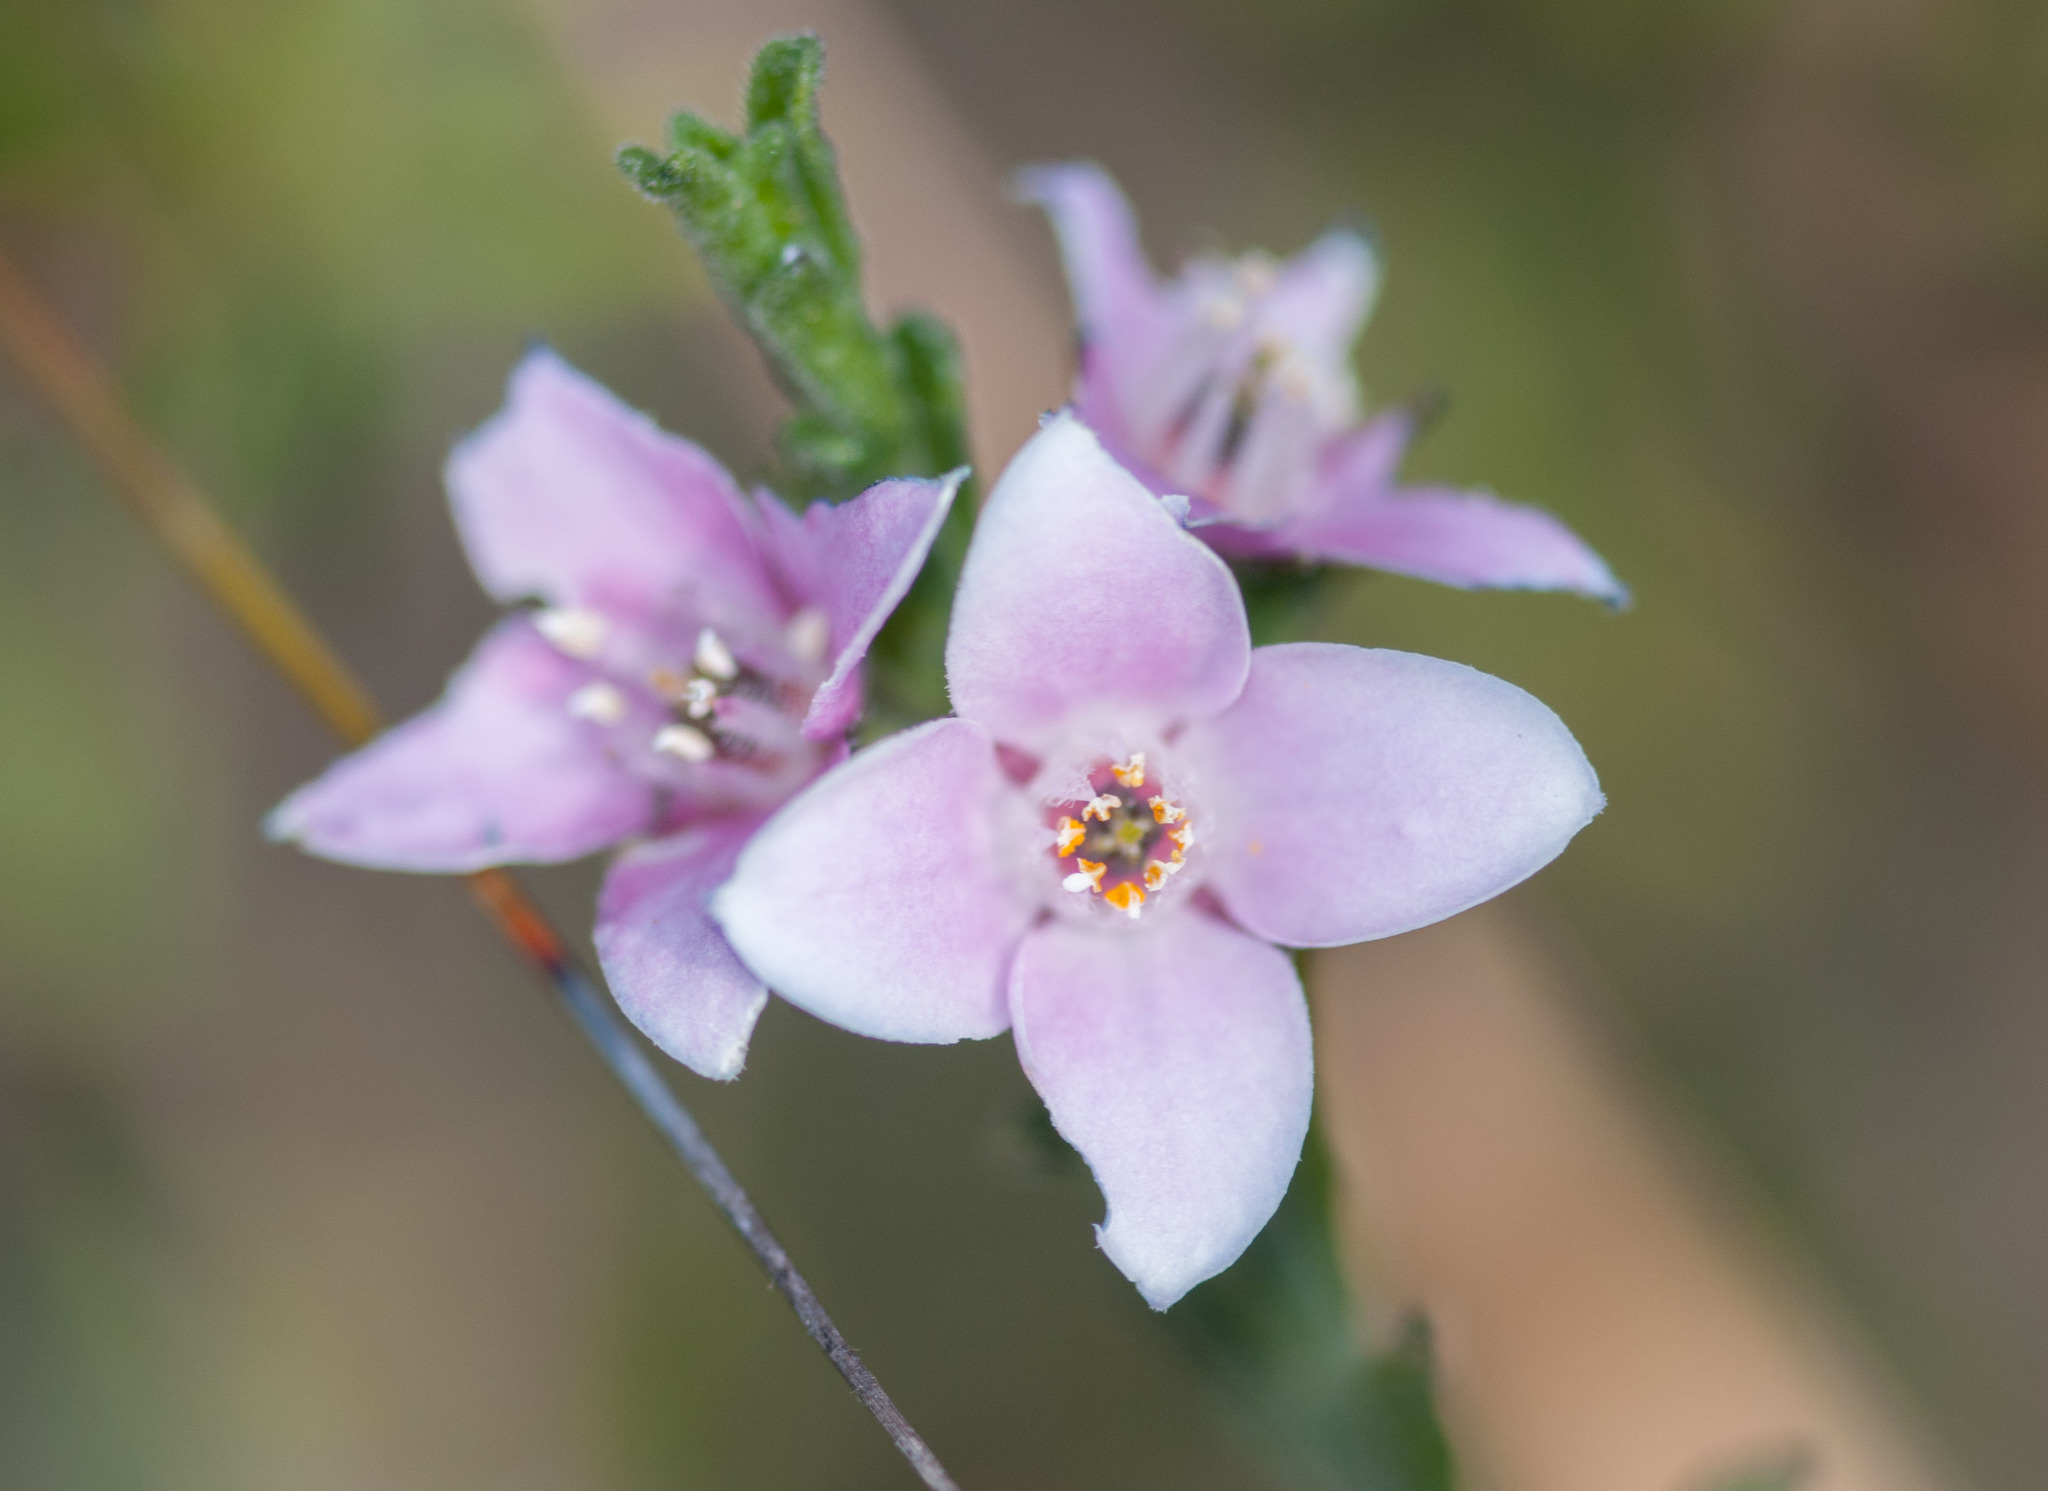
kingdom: Plantae
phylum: Tracheophyta
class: Magnoliopsida
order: Sapindales
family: Rutaceae
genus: Cyanothamnus
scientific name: Cyanothamnus coerulescens
